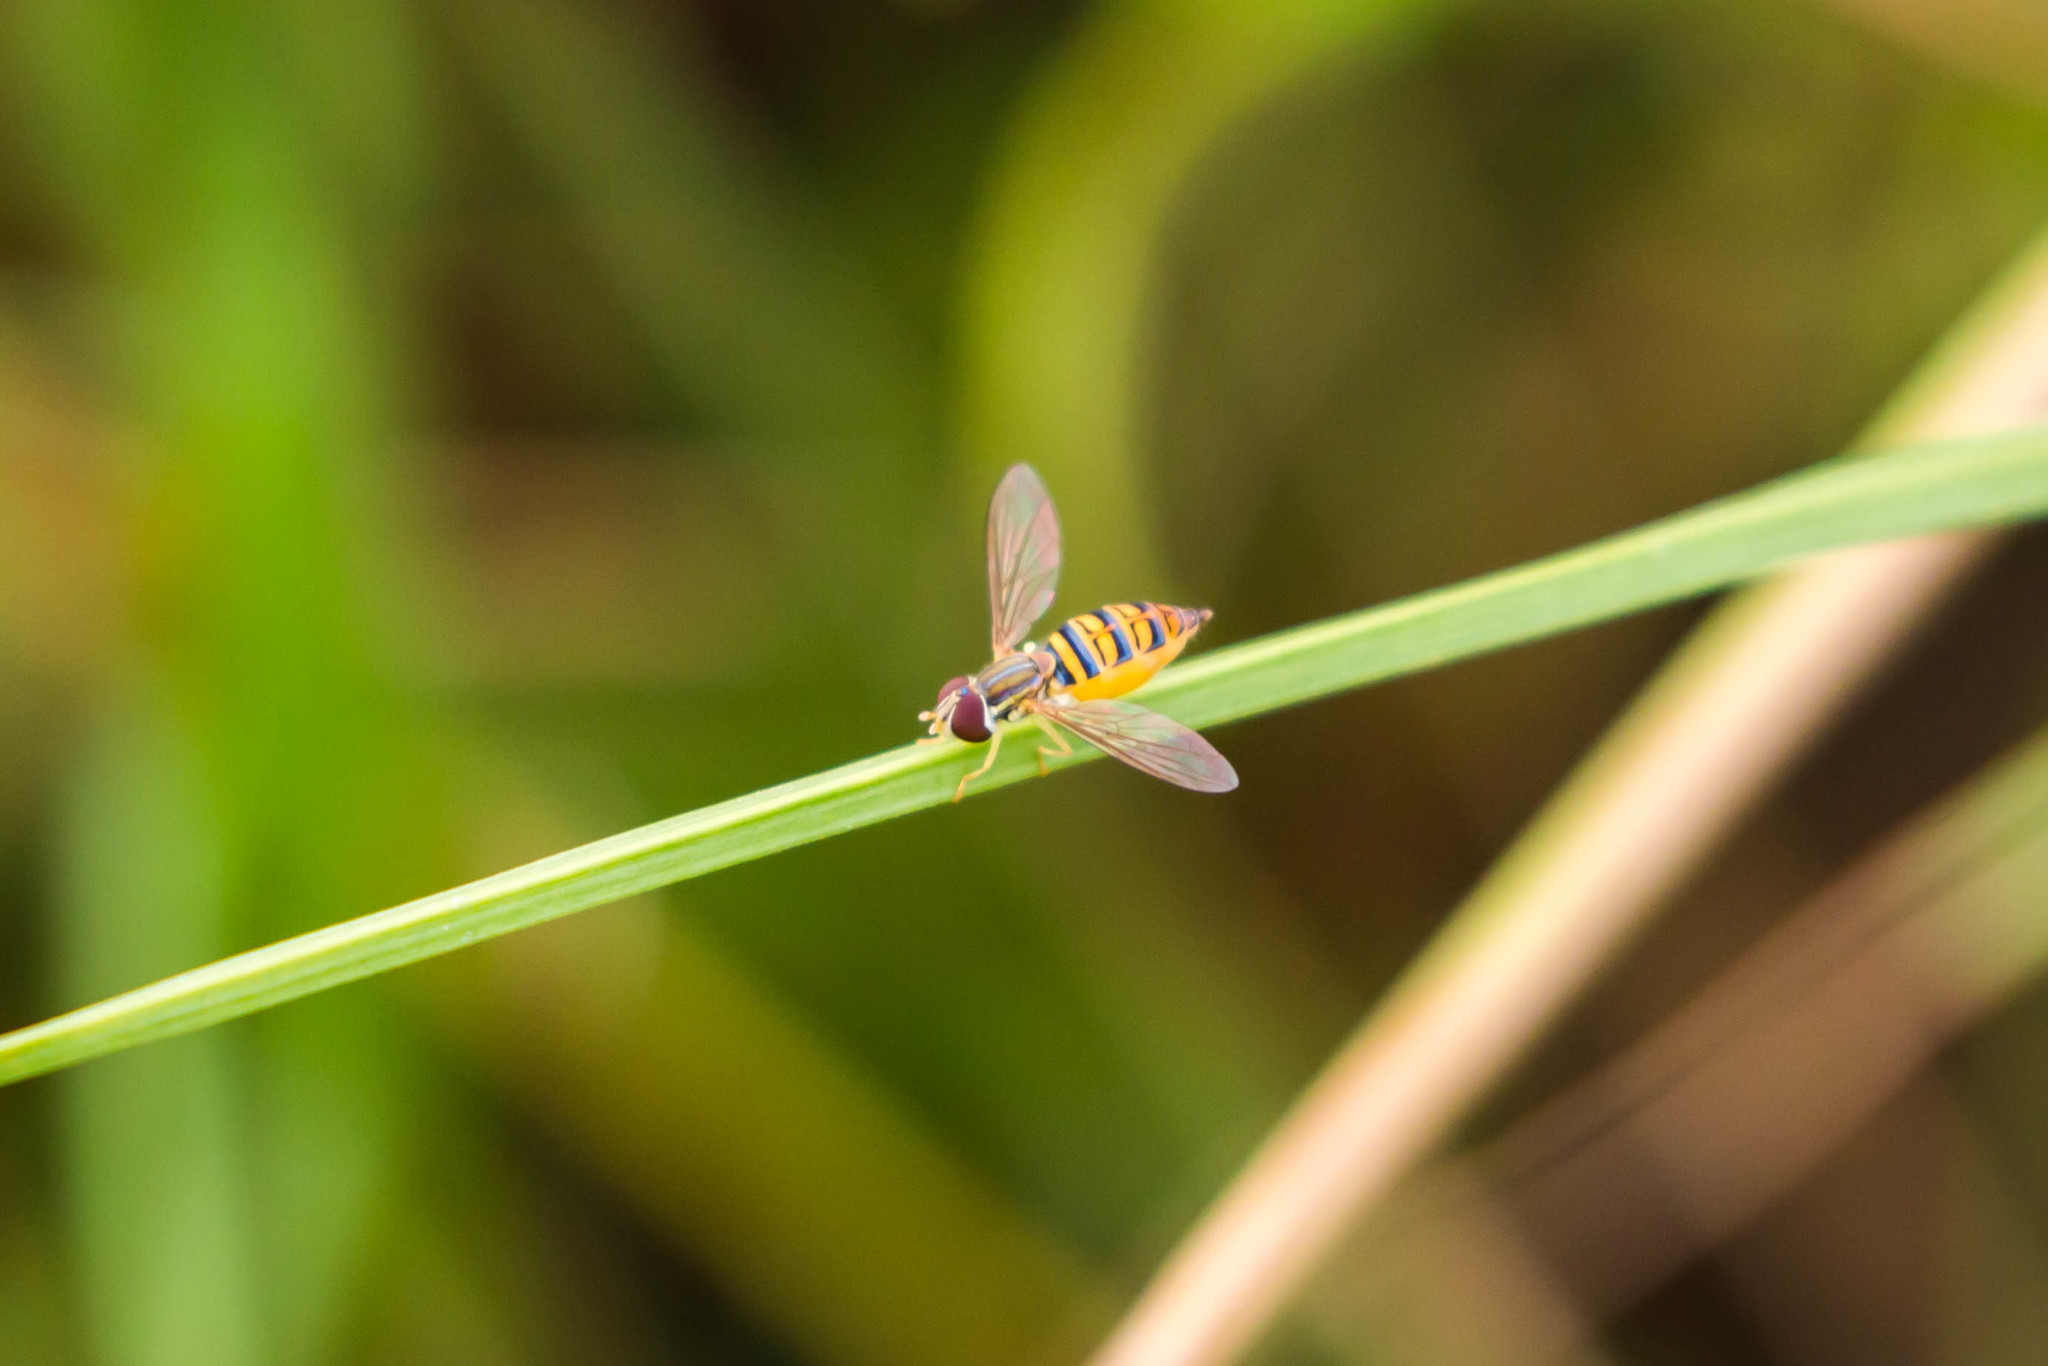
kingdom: Animalia
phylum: Arthropoda
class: Insecta
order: Diptera
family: Syrphidae
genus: Toxomerus
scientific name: Toxomerus politus
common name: Maize calligrapher
